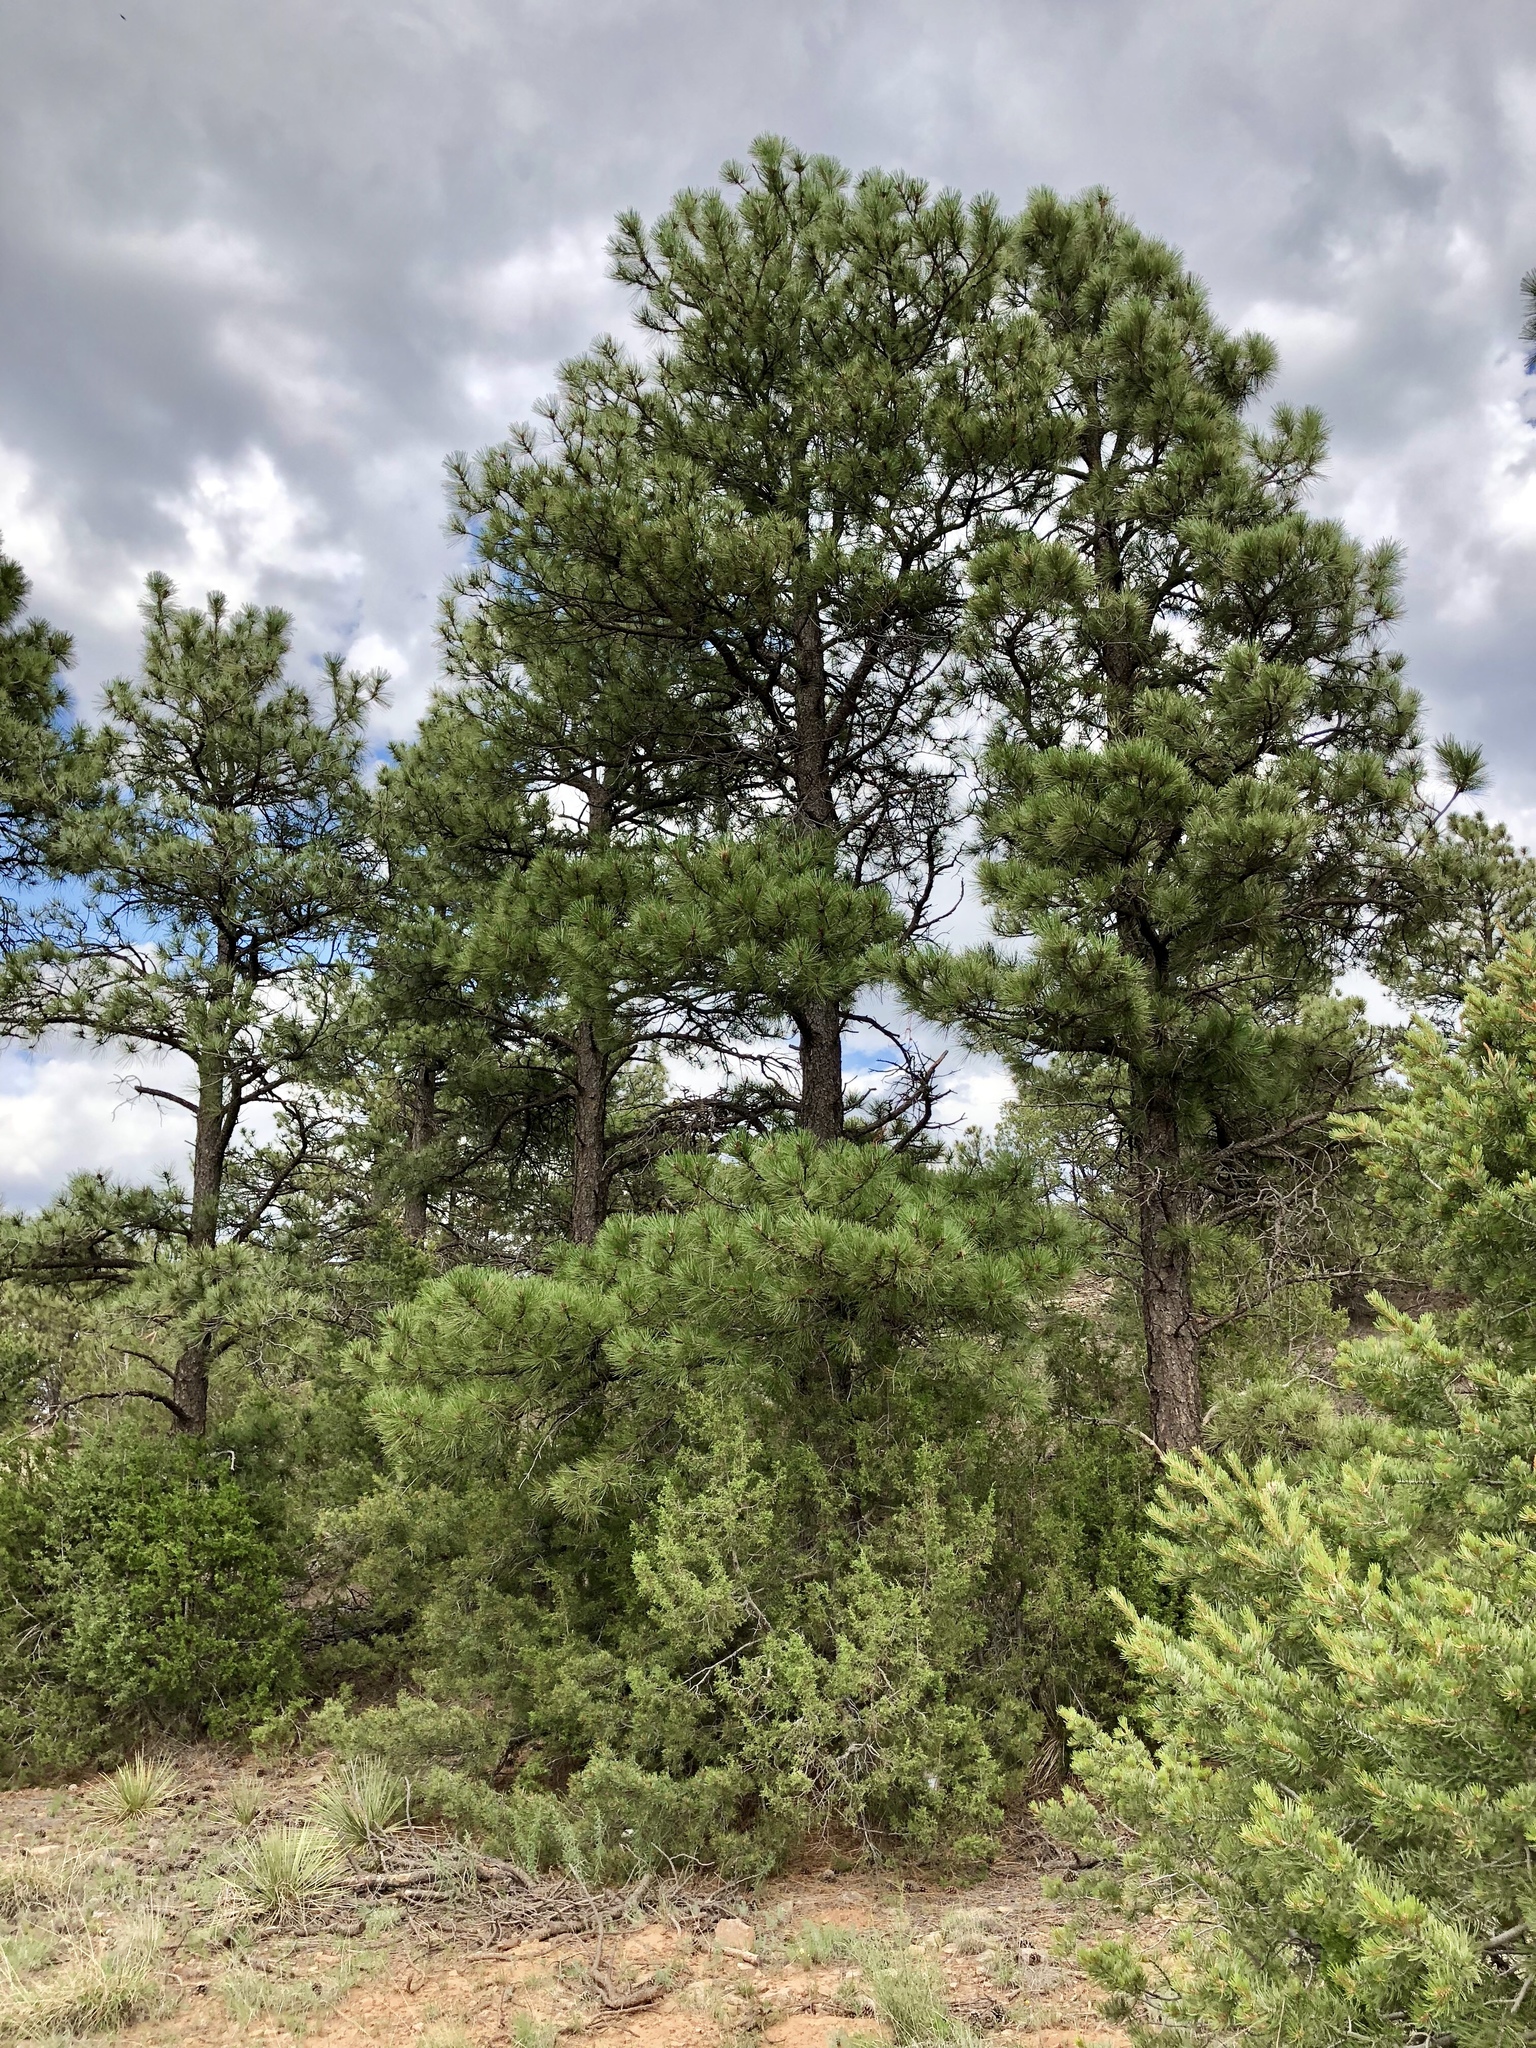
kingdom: Plantae
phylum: Tracheophyta
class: Pinopsida
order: Pinales
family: Pinaceae
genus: Pinus
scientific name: Pinus ponderosa
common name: Western yellow-pine
